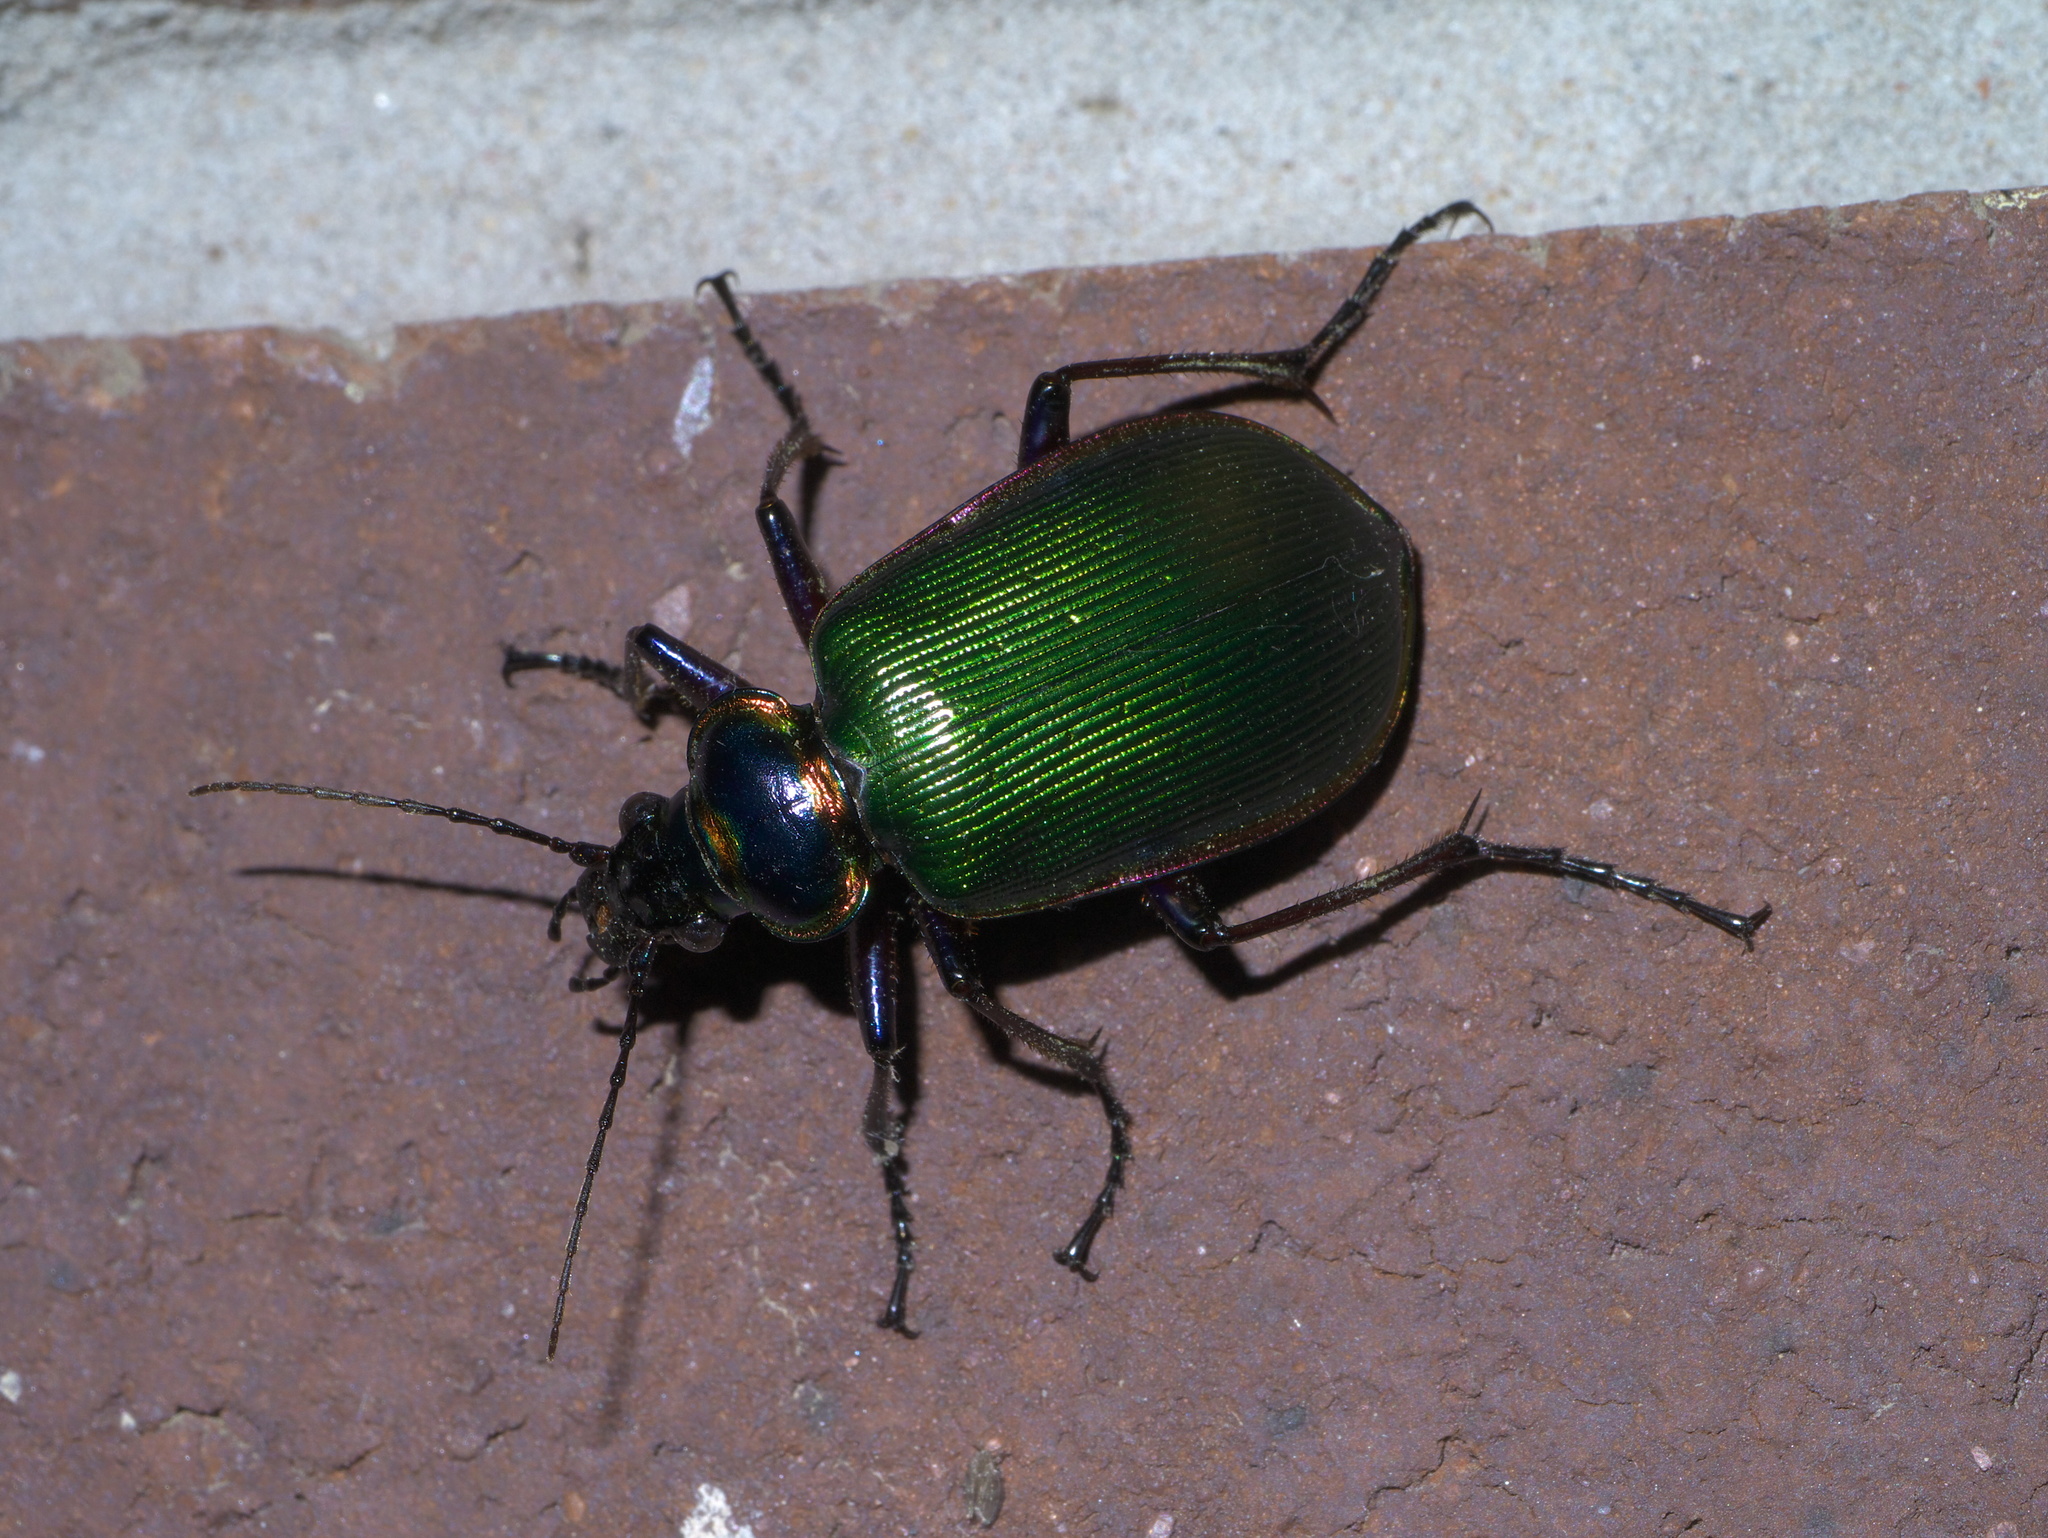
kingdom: Animalia
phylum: Arthropoda
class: Insecta
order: Coleoptera
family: Carabidae
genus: Calosoma
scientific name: Calosoma scrutator
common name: Fiery searcher beetle
